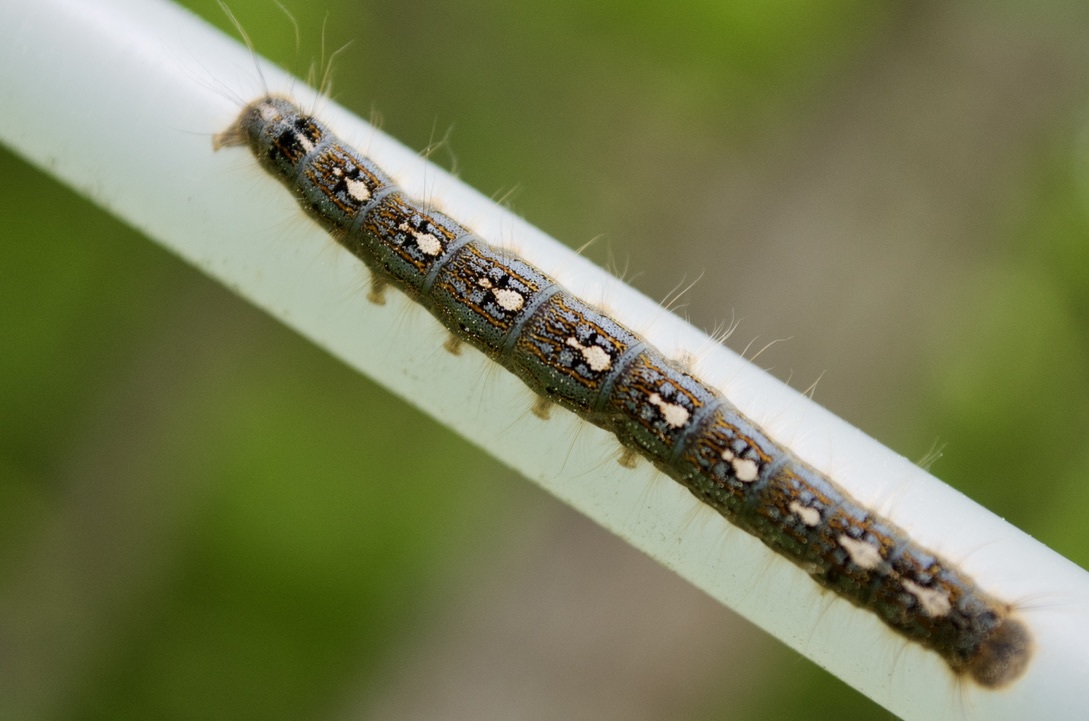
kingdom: Animalia
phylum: Arthropoda
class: Insecta
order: Lepidoptera
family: Lasiocampidae
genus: Malacosoma
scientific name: Malacosoma disstria
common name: Forest tent caterpillar
